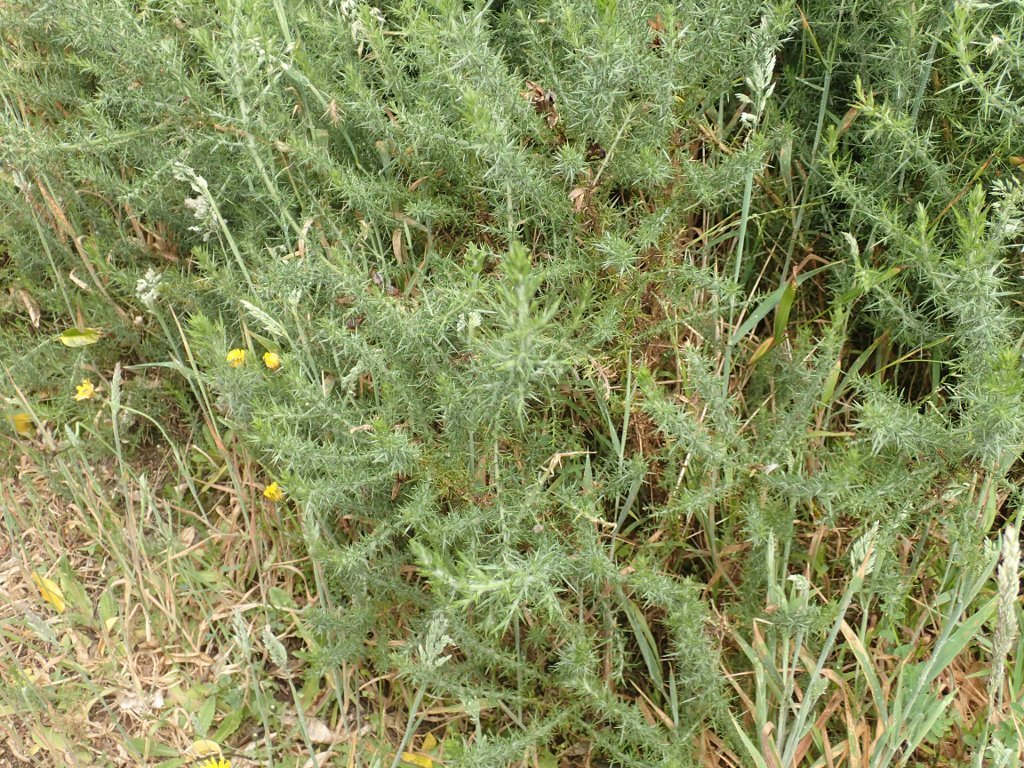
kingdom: Plantae
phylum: Tracheophyta
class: Magnoliopsida
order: Fabales
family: Fabaceae
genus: Ulex
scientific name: Ulex europaeus
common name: Common gorse
